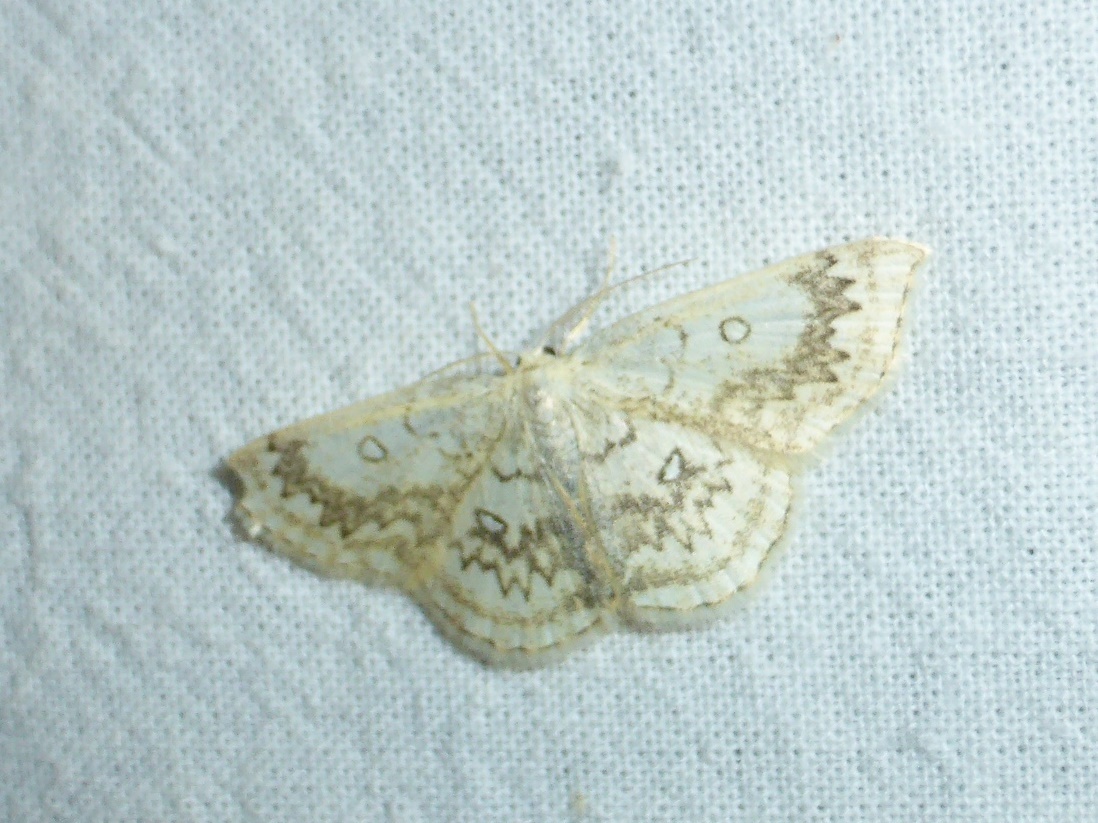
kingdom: Animalia
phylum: Arthropoda
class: Insecta
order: Lepidoptera
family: Geometridae
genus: Cyclophora
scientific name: Cyclophora annularia
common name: Mocha
